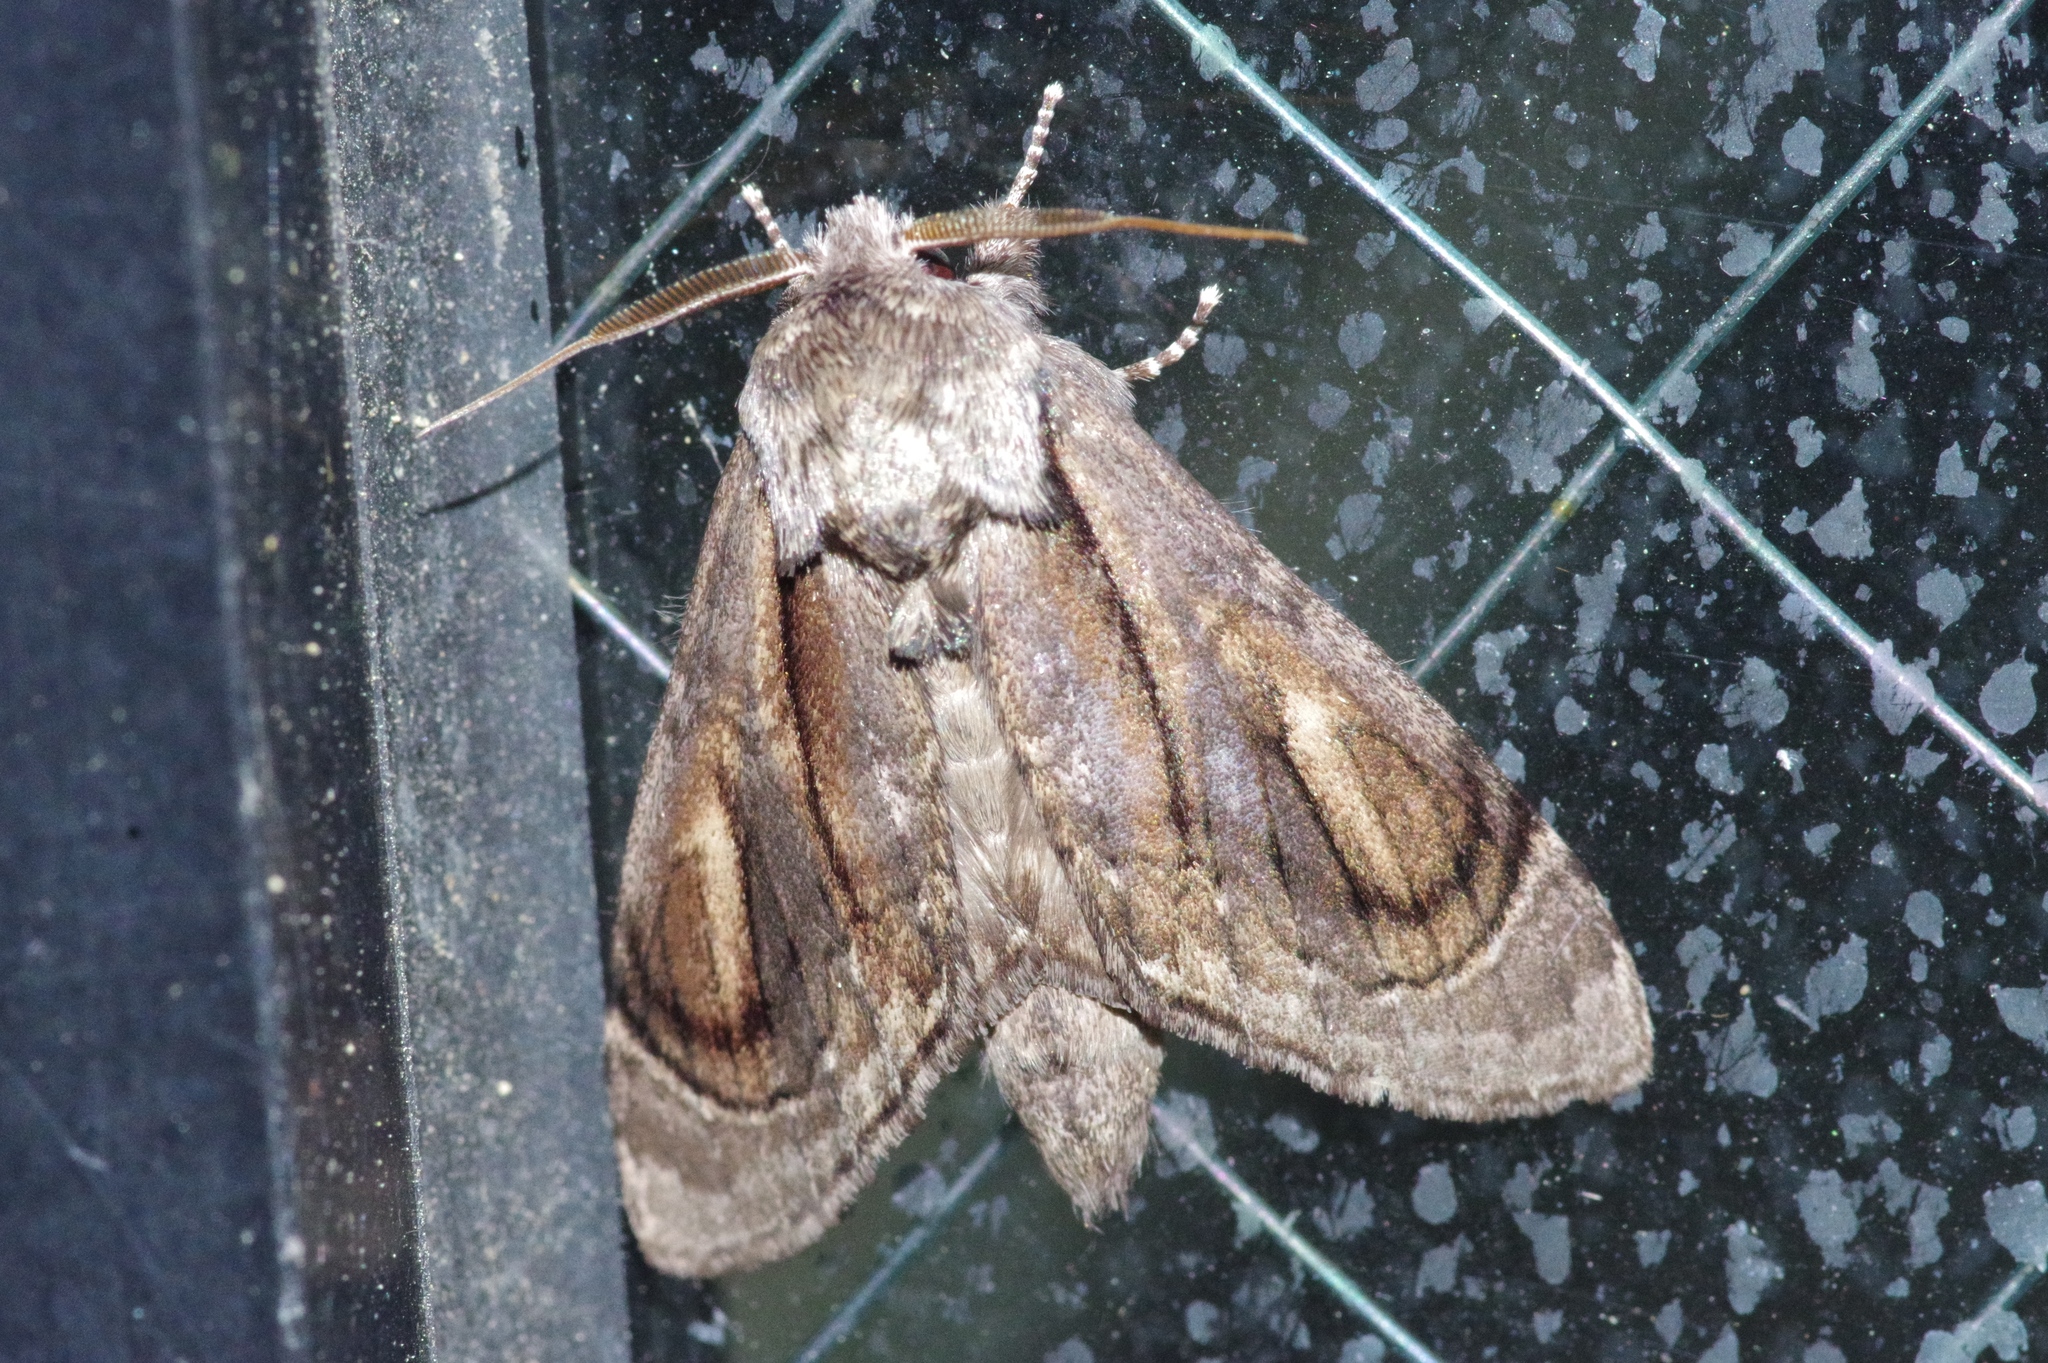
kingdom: Animalia
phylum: Arthropoda
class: Insecta
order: Lepidoptera
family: Notodontidae
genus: Fentonia
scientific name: Fentonia ocypete
